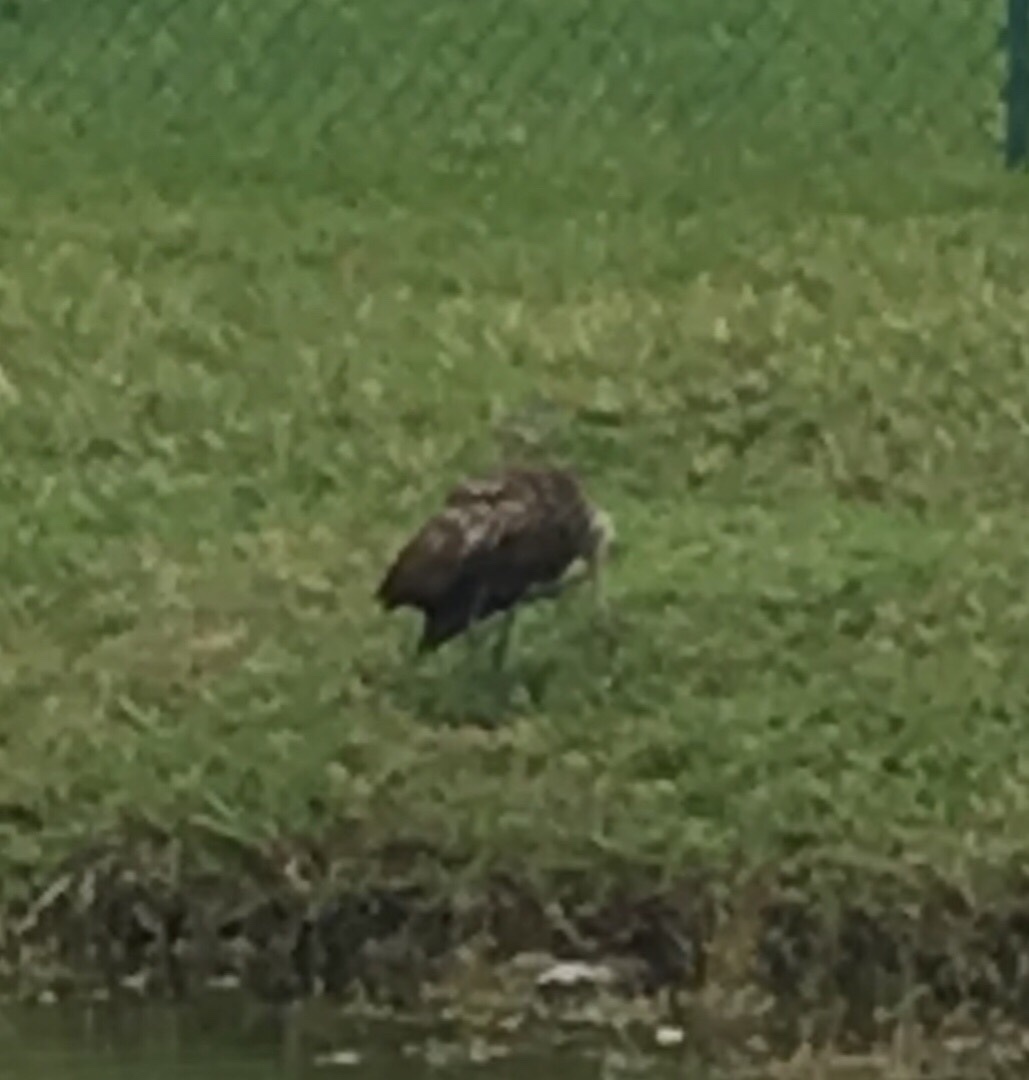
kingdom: Animalia
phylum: Chordata
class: Aves
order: Gruiformes
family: Aramidae
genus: Aramus
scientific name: Aramus guarauna
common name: Limpkin
